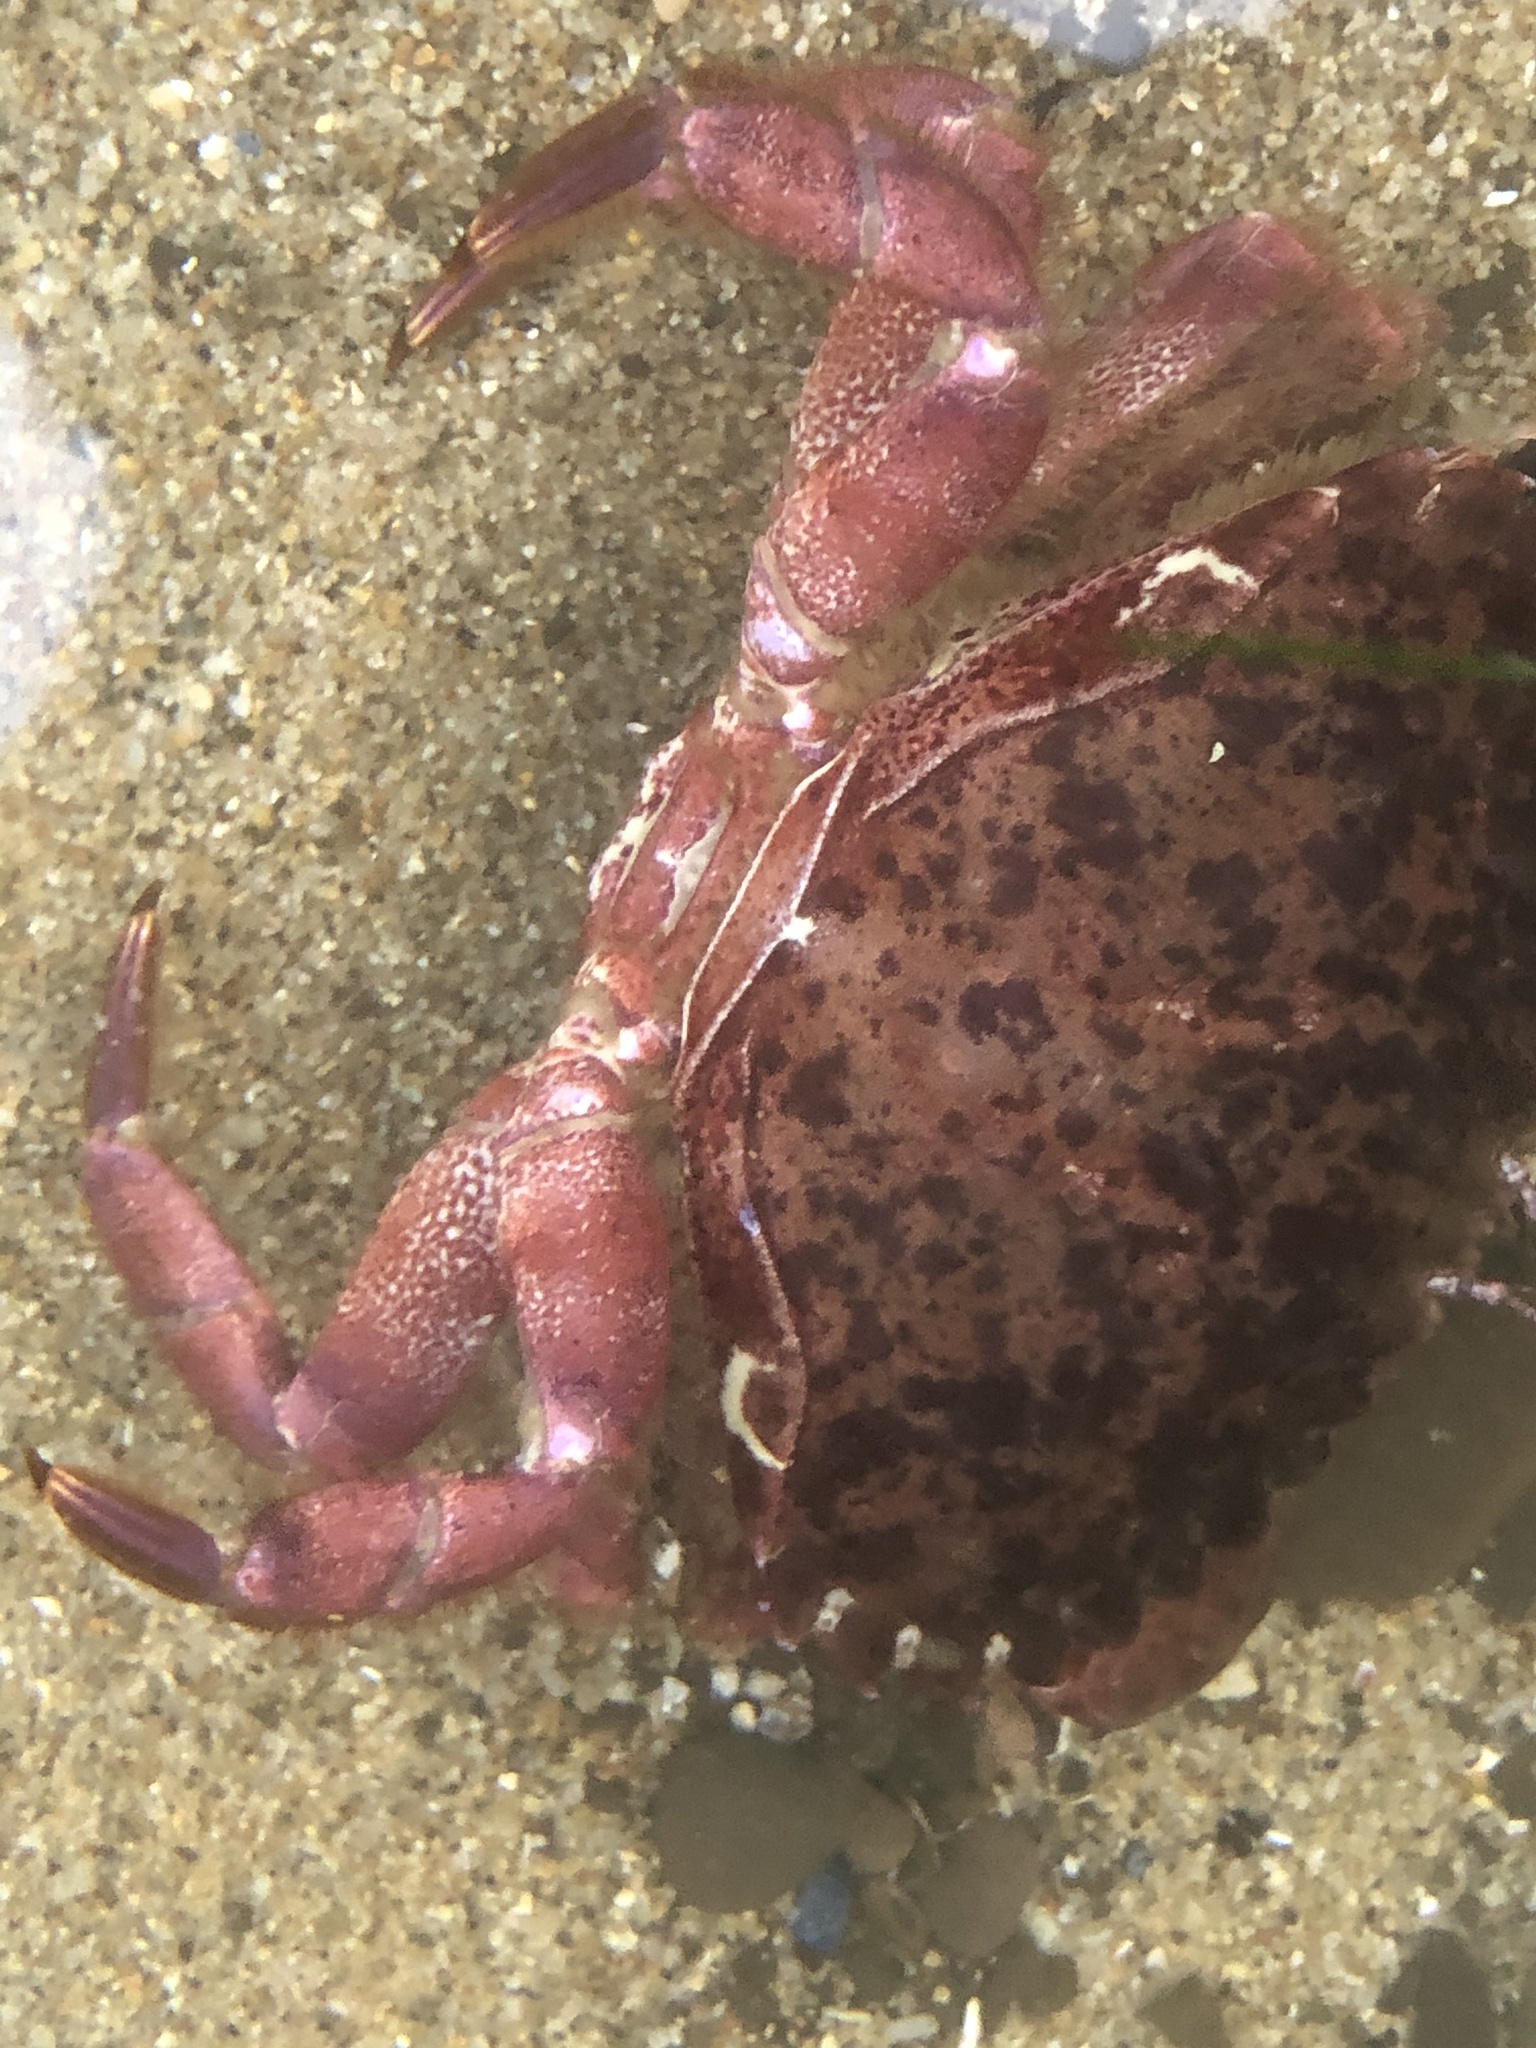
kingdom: Animalia
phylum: Arthropoda
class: Malacostraca
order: Decapoda
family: Cancridae
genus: Romaleon
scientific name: Romaleon antennarium
